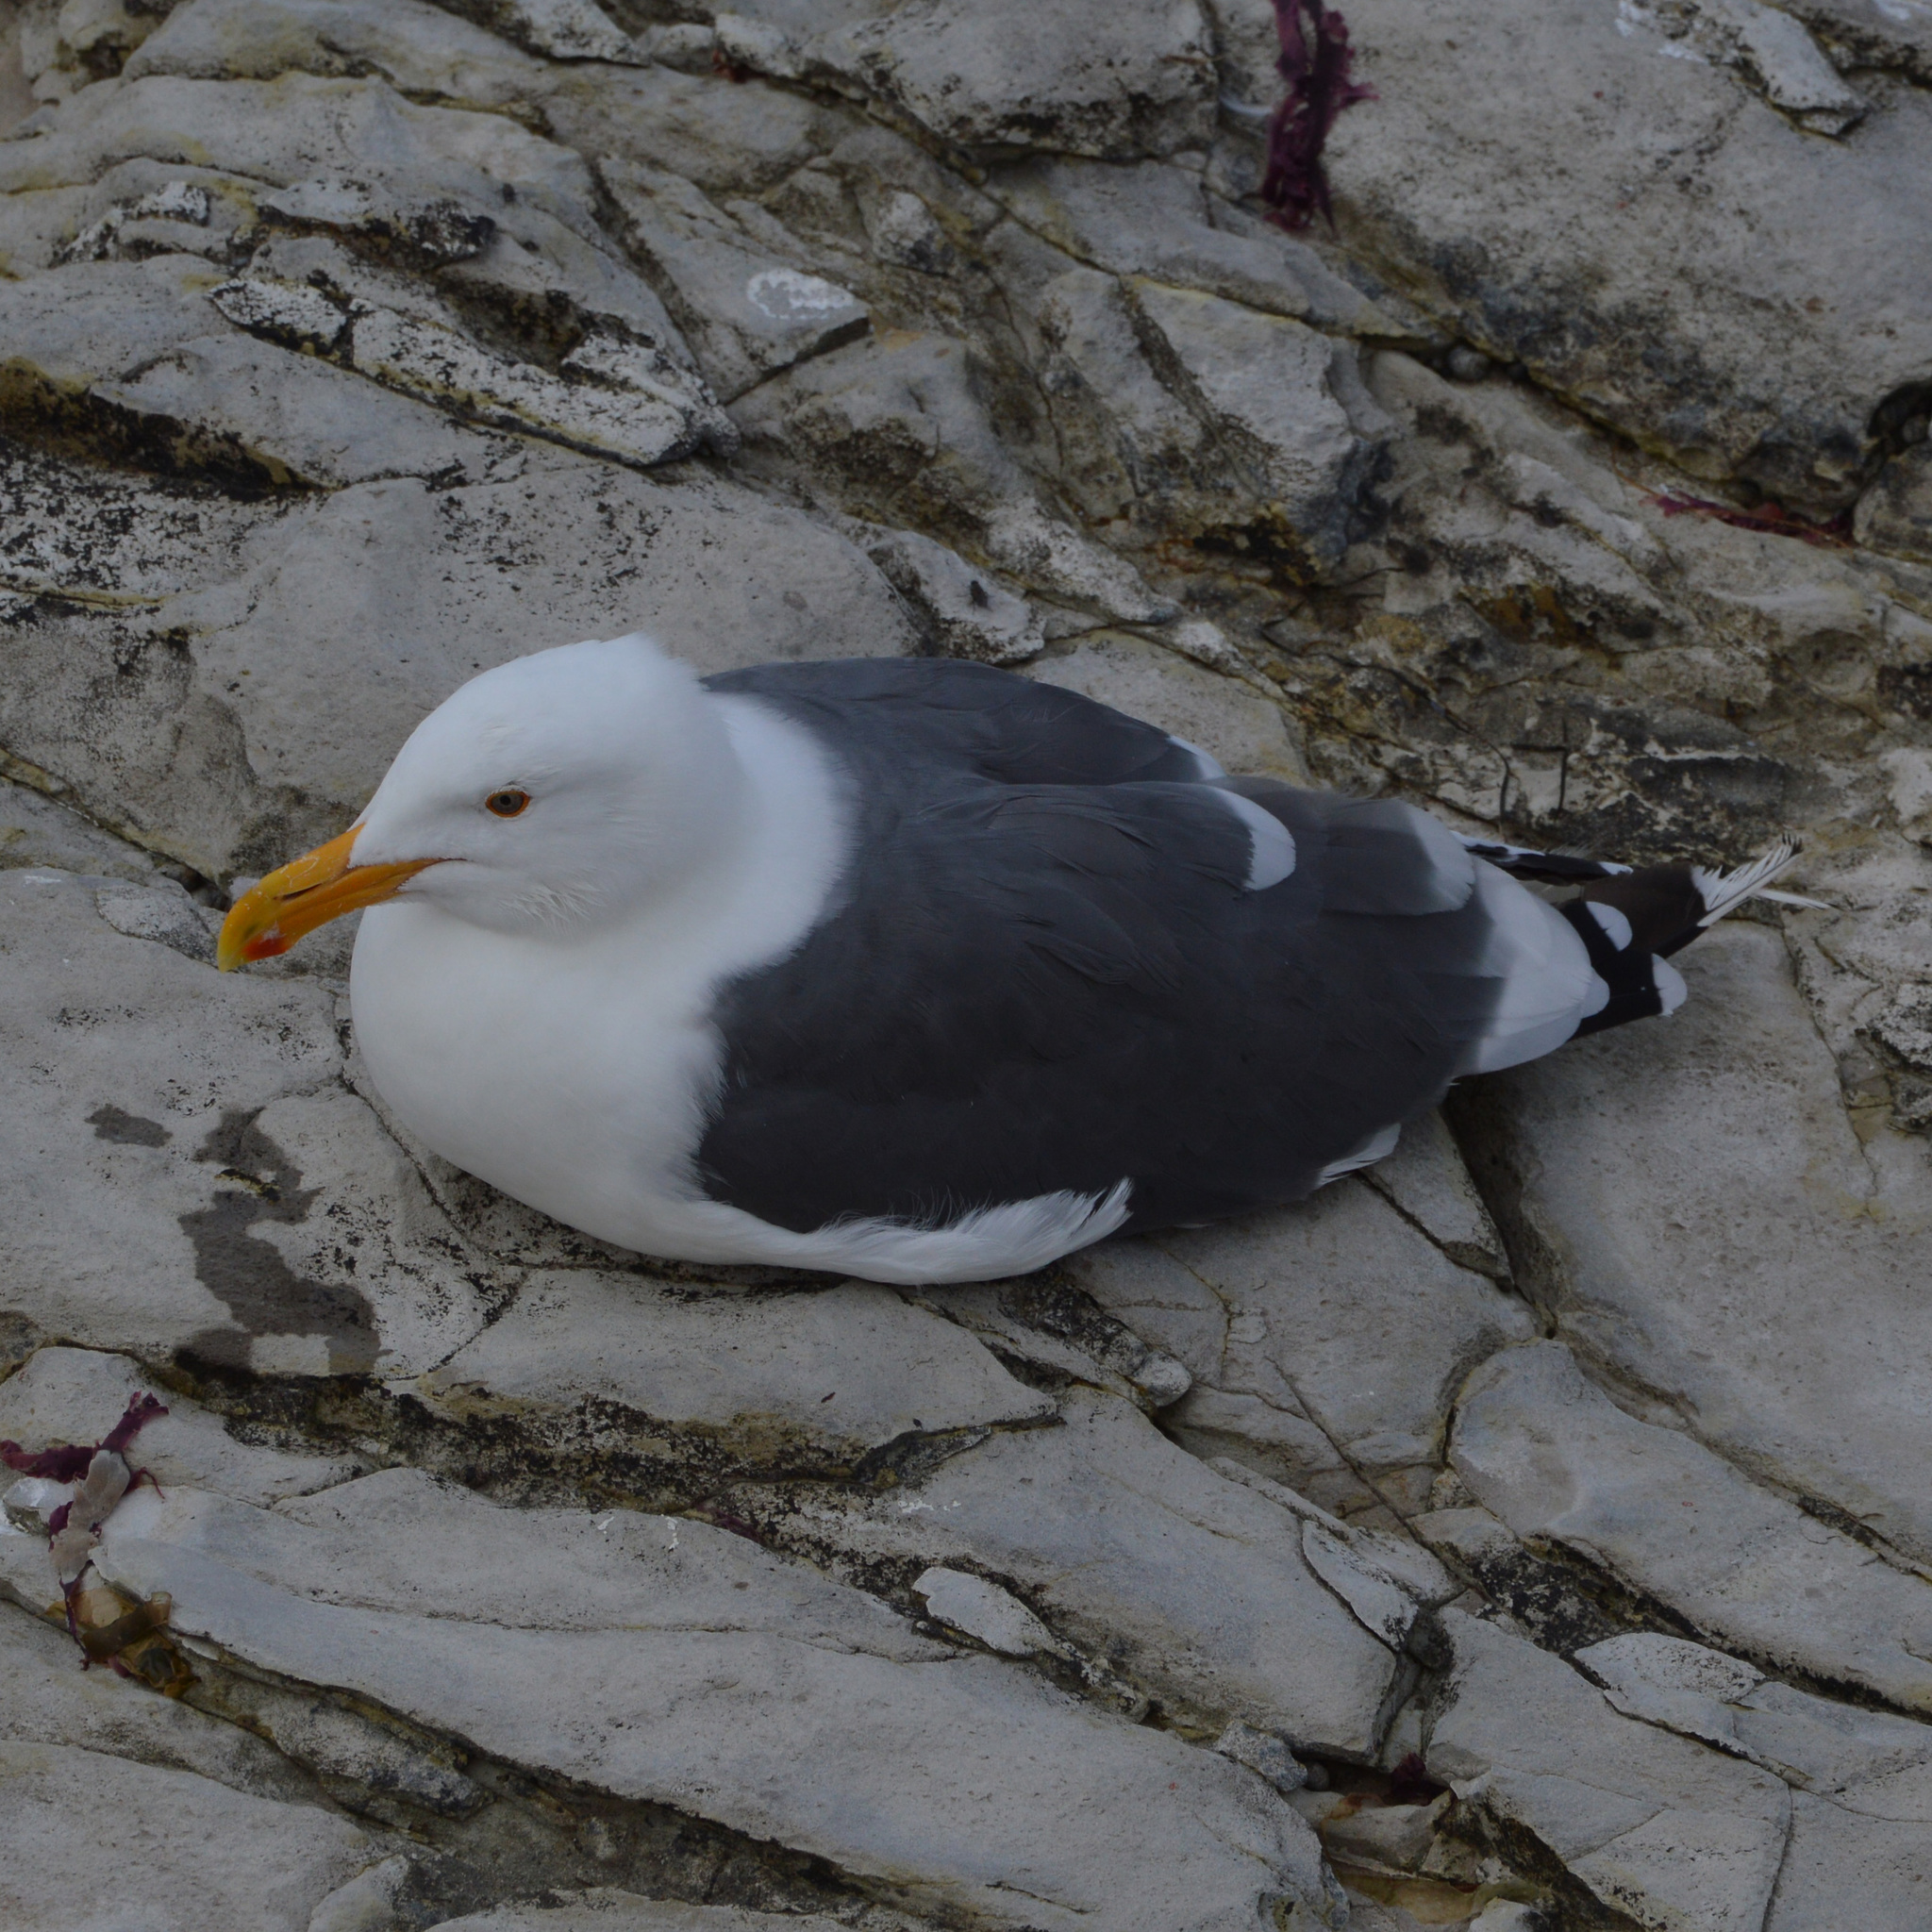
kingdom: Animalia
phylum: Chordata
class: Aves
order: Charadriiformes
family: Laridae
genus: Larus
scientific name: Larus occidentalis
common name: Western gull
